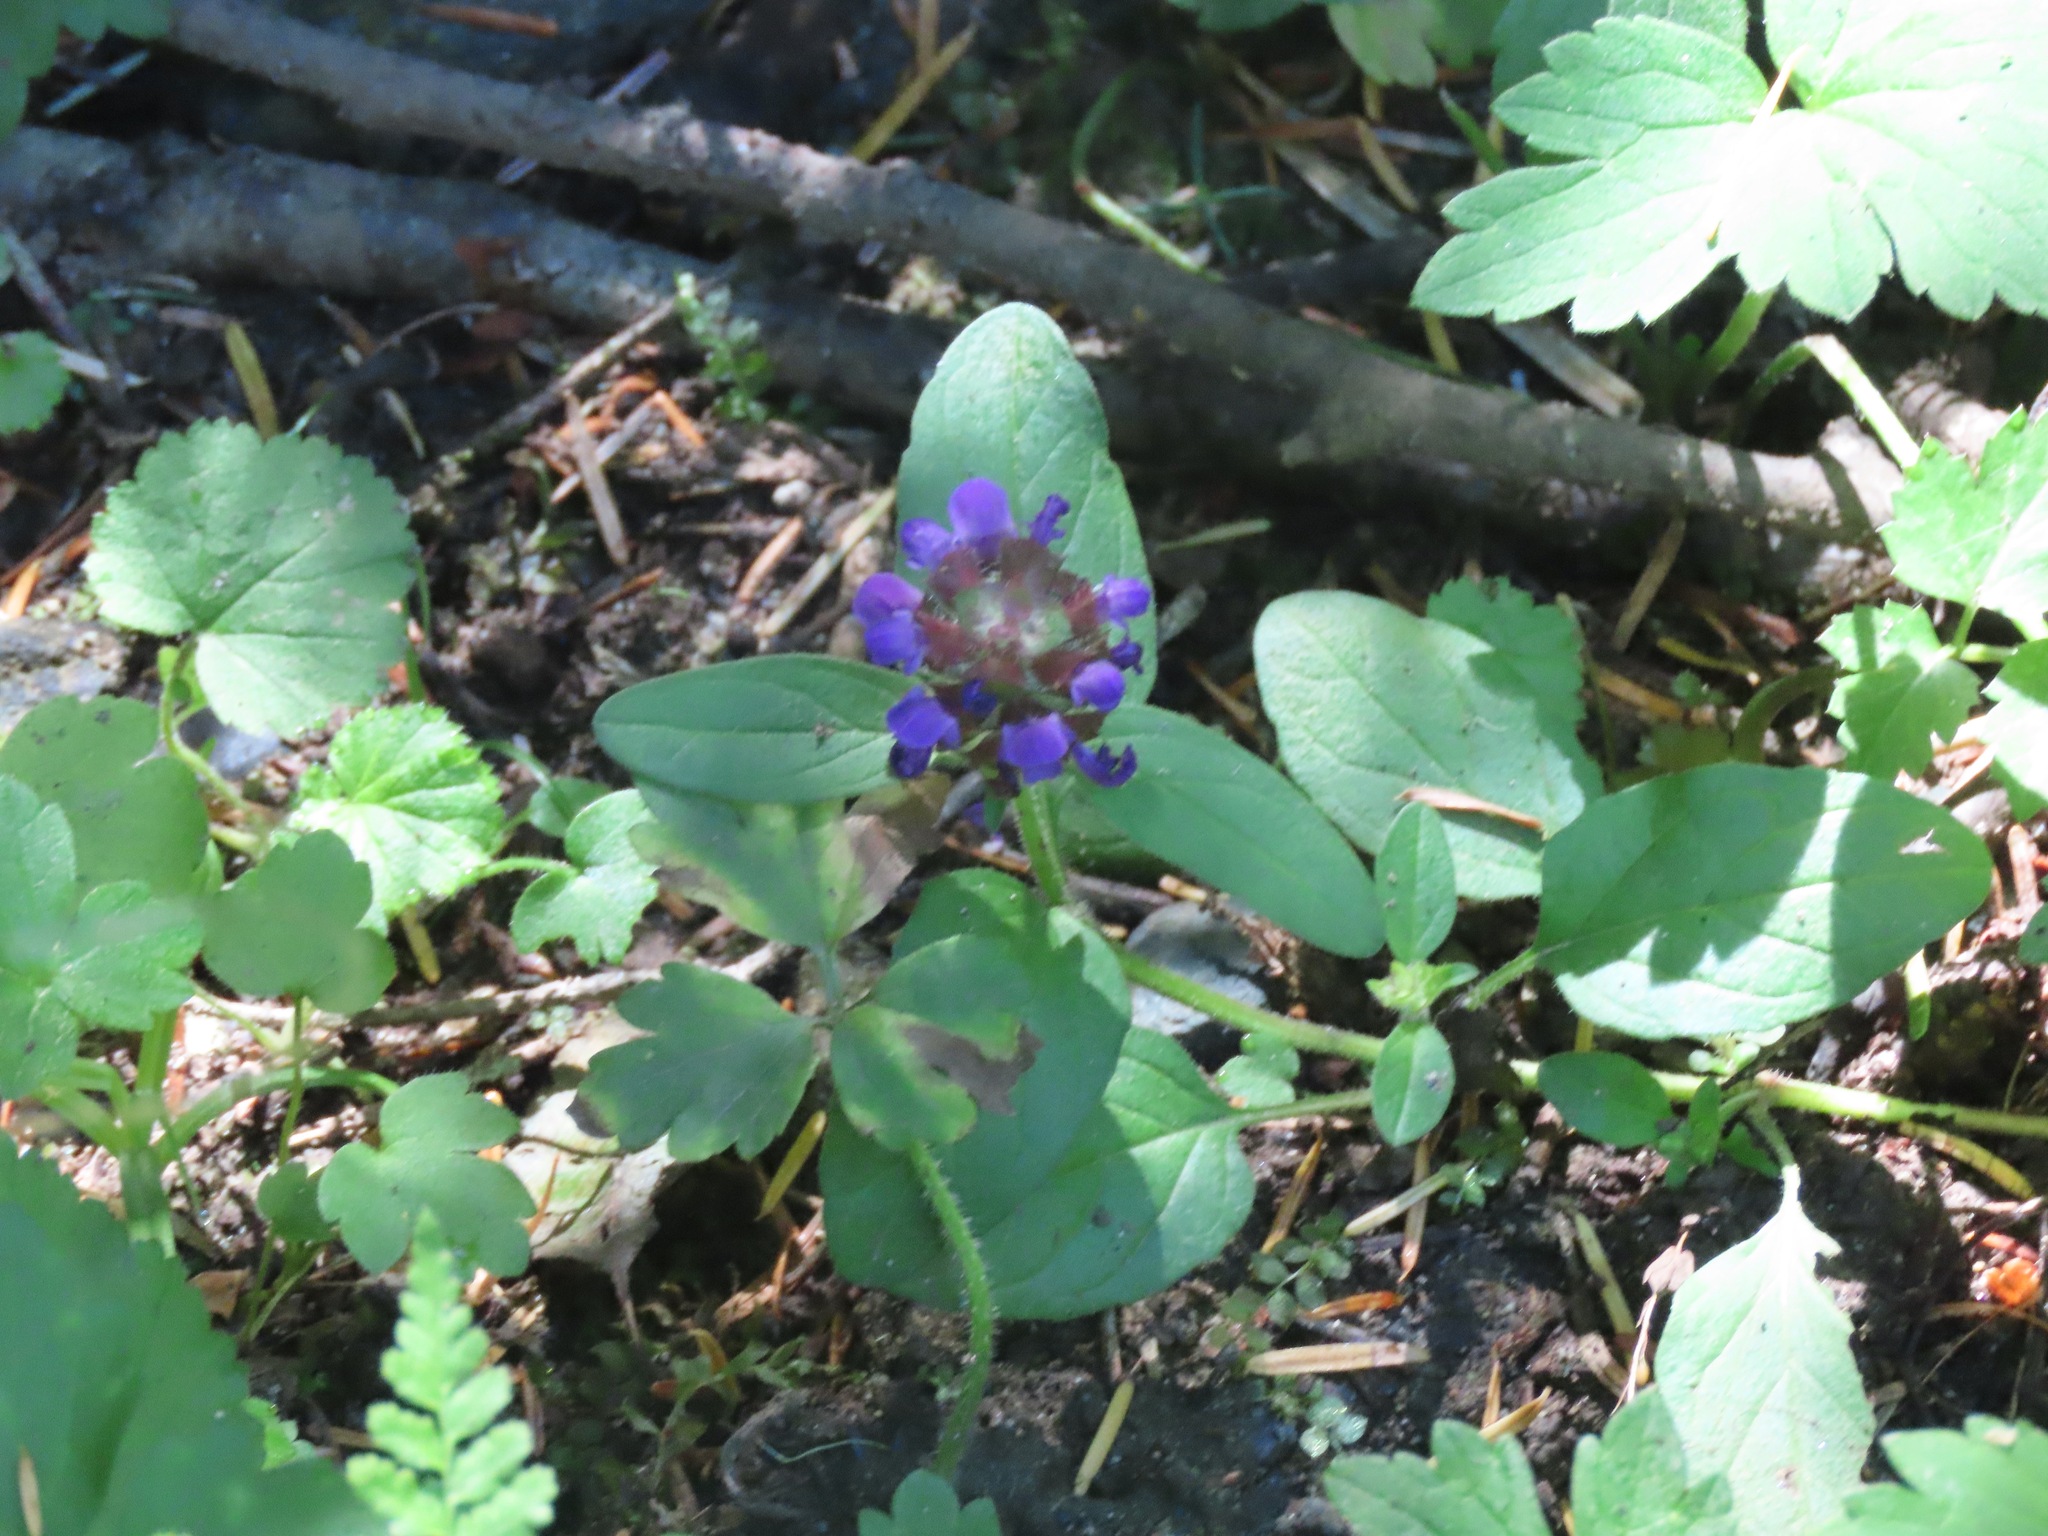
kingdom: Plantae
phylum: Tracheophyta
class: Magnoliopsida
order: Lamiales
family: Lamiaceae
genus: Prunella
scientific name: Prunella vulgaris
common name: Heal-all
